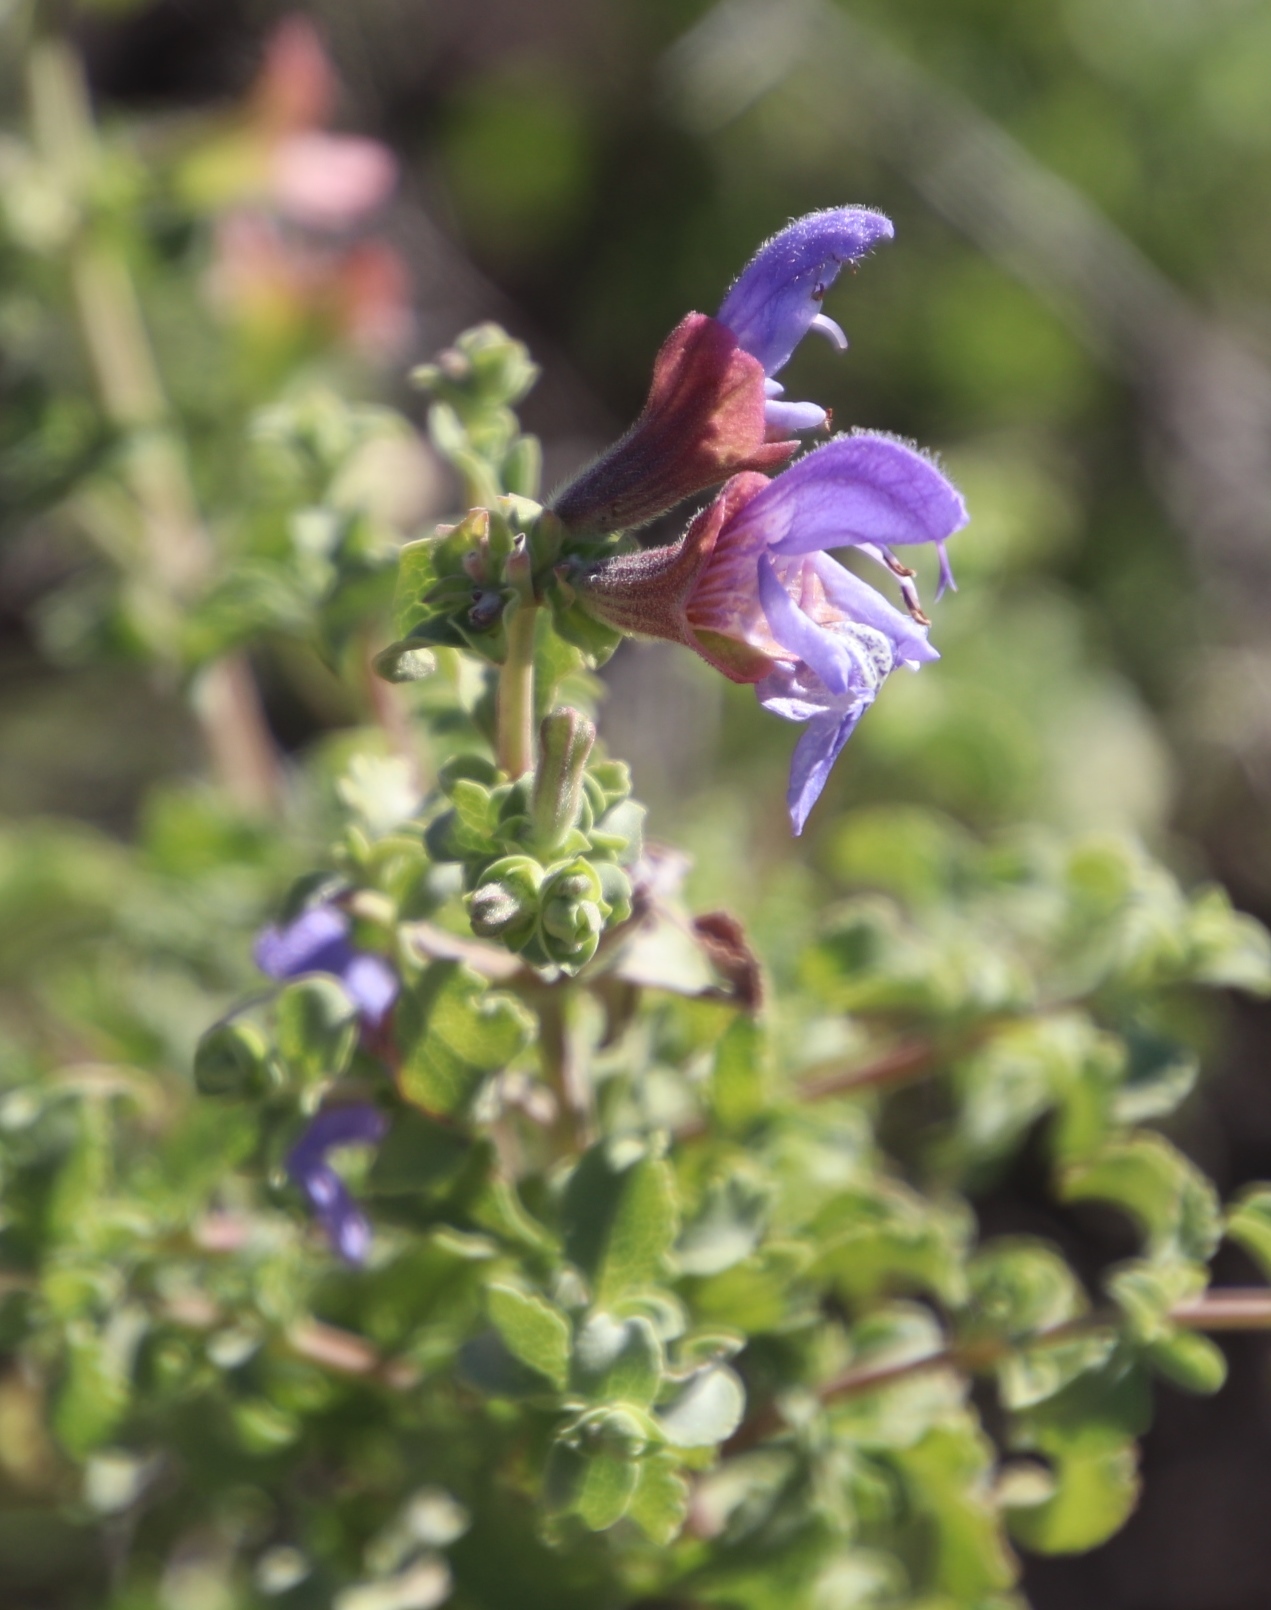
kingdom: Plantae
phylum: Tracheophyta
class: Magnoliopsida
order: Lamiales
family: Lamiaceae
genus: Salvia
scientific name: Salvia dentata
